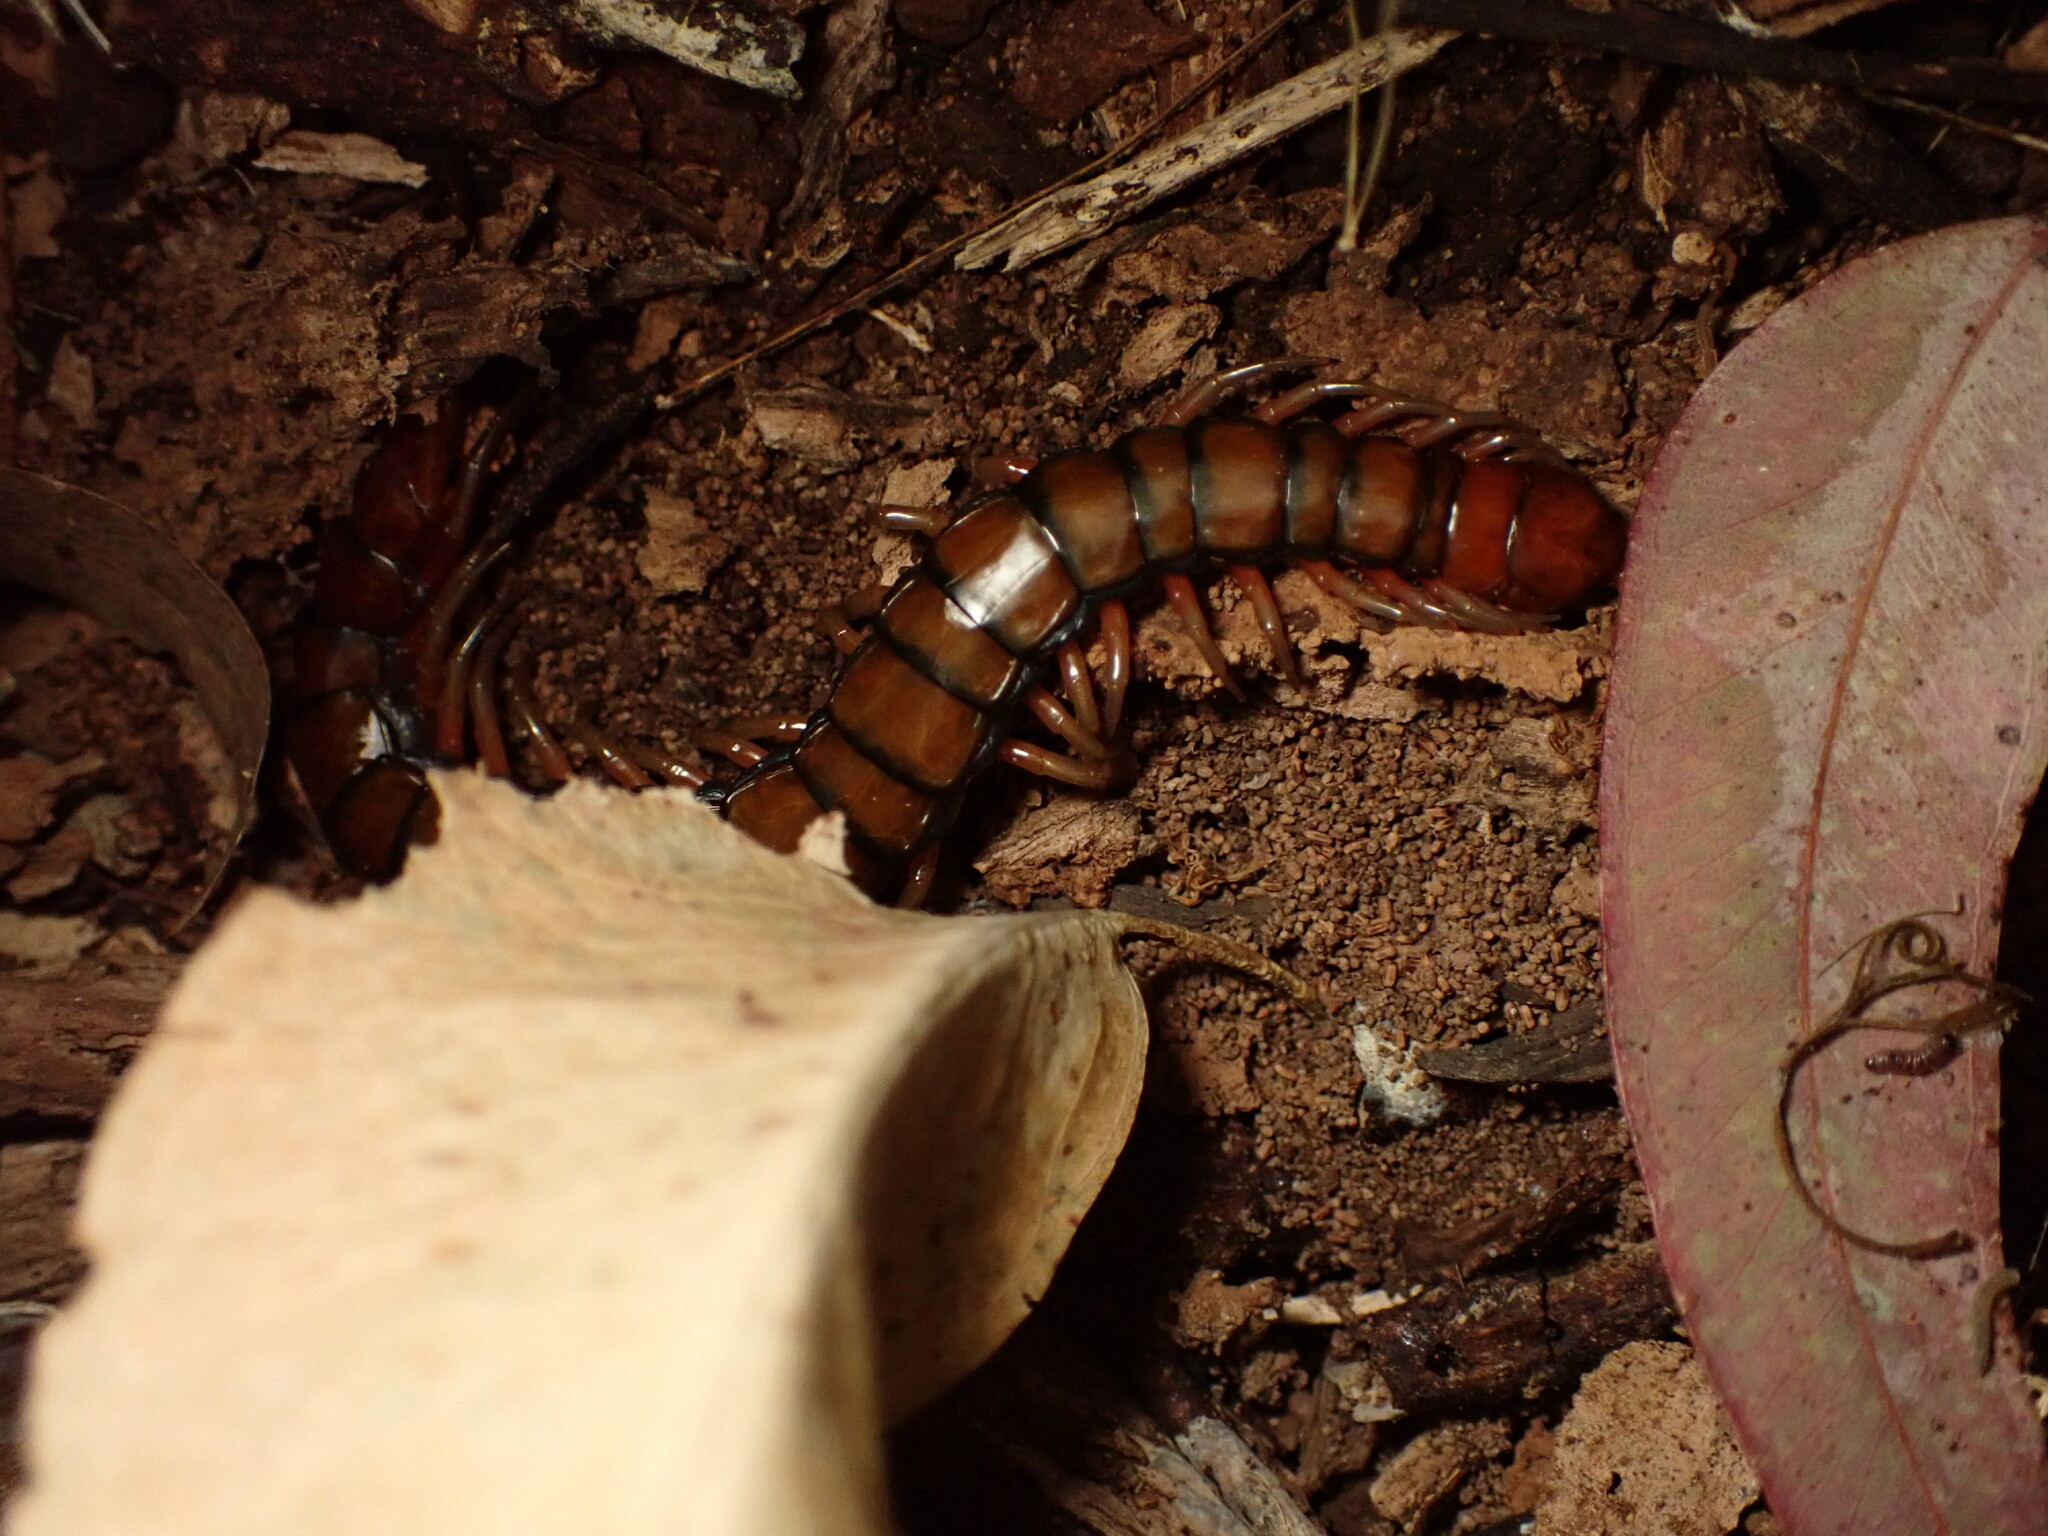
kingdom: Animalia
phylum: Arthropoda
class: Chilopoda
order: Scolopendromorpha
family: Scolopendridae
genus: Scolopendra
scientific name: Scolopendra subspinipes
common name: Centipede
